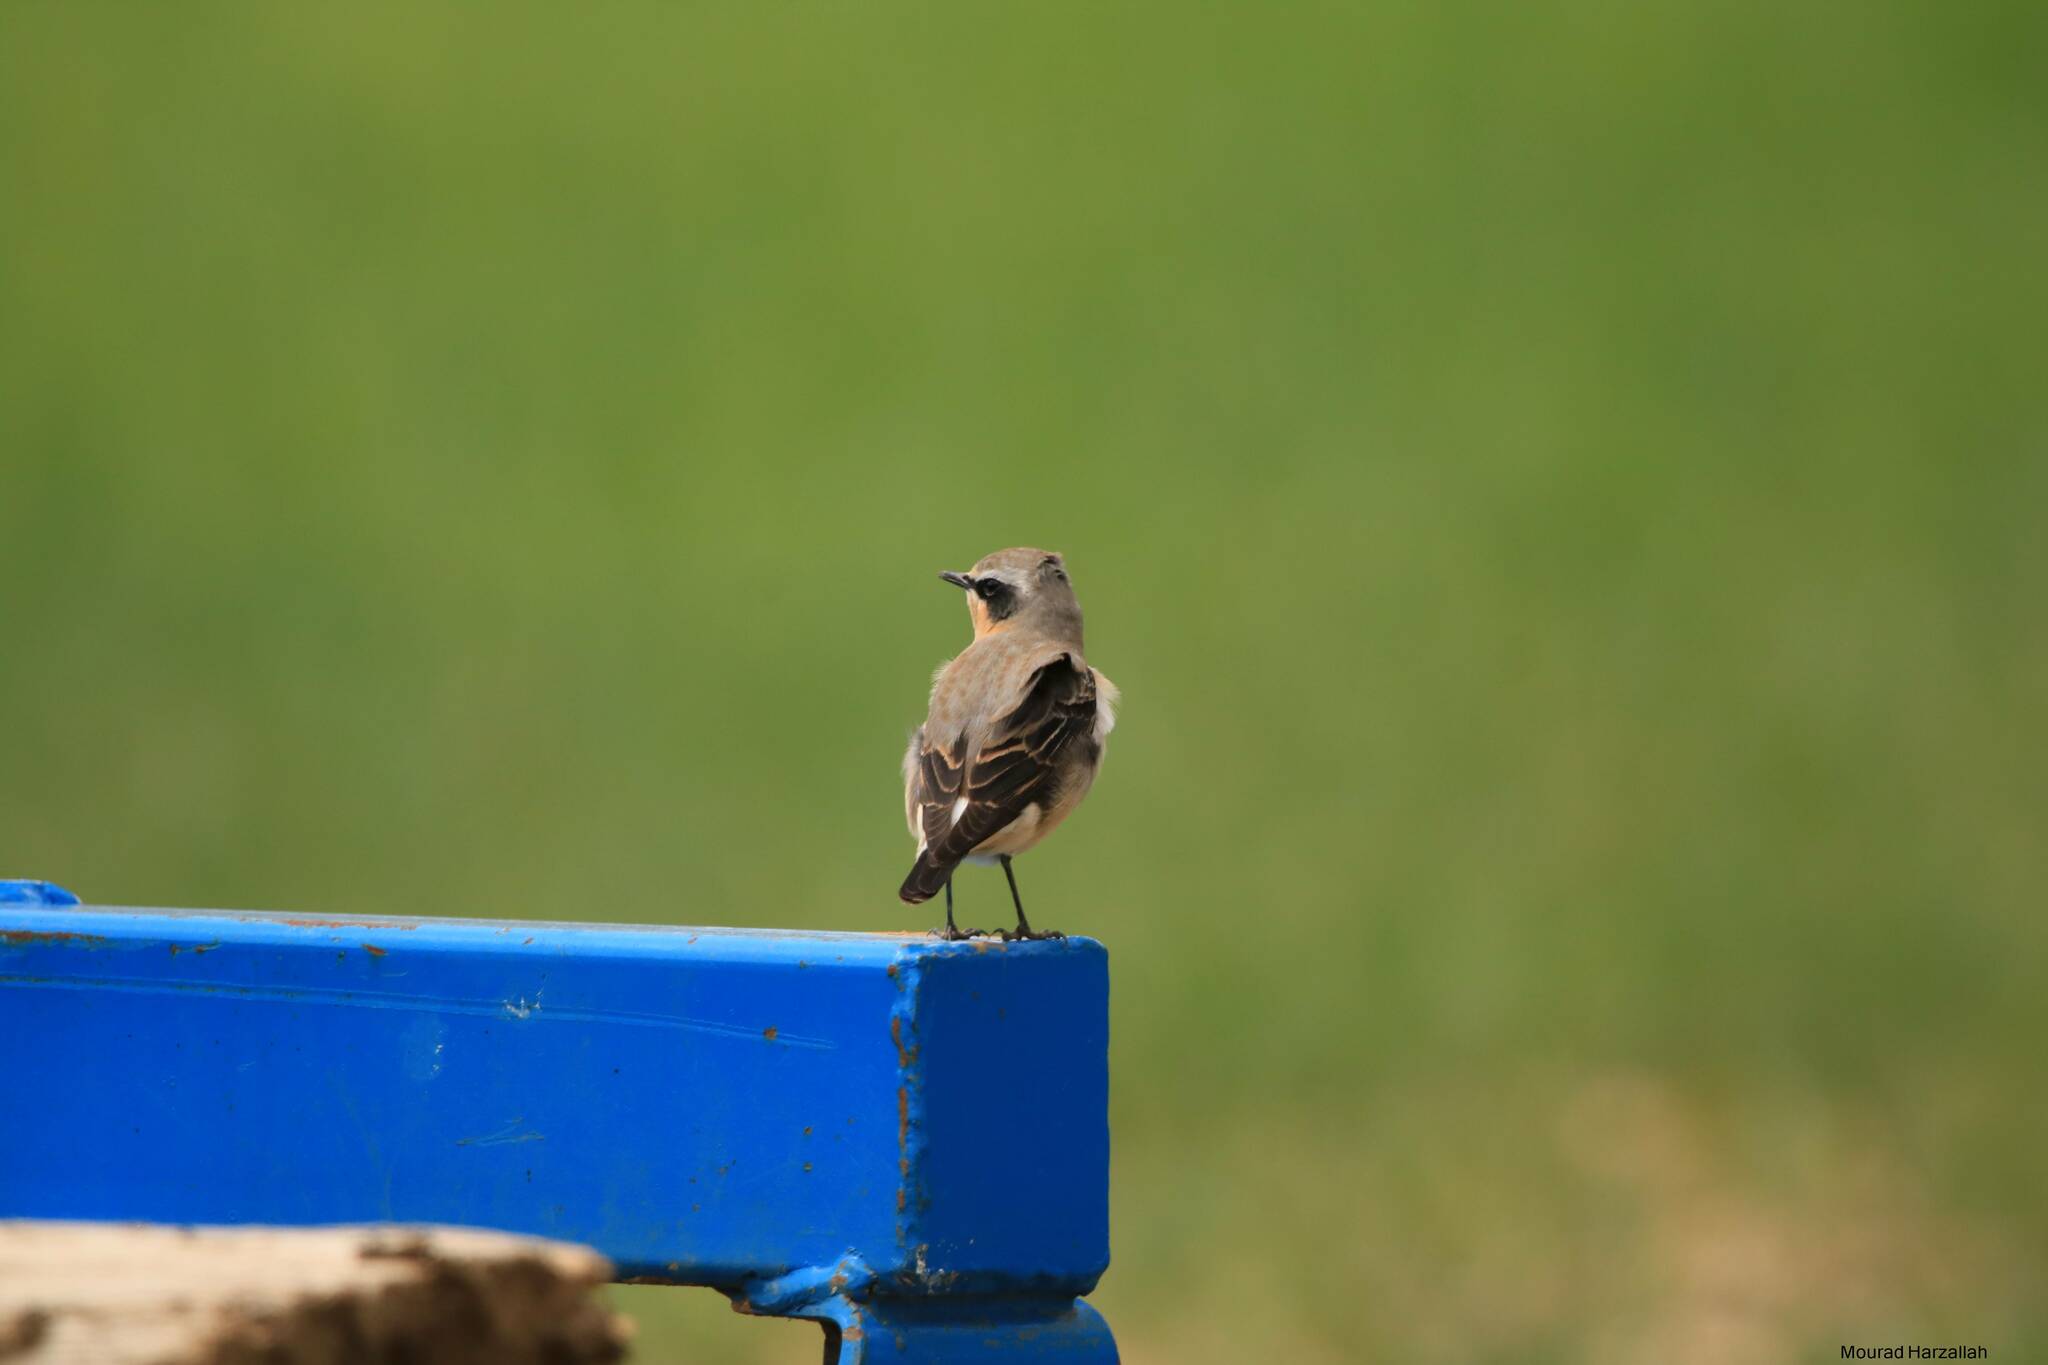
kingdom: Animalia
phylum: Chordata
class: Aves
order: Passeriformes
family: Muscicapidae
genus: Oenanthe
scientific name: Oenanthe oenanthe
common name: Northern wheatear
